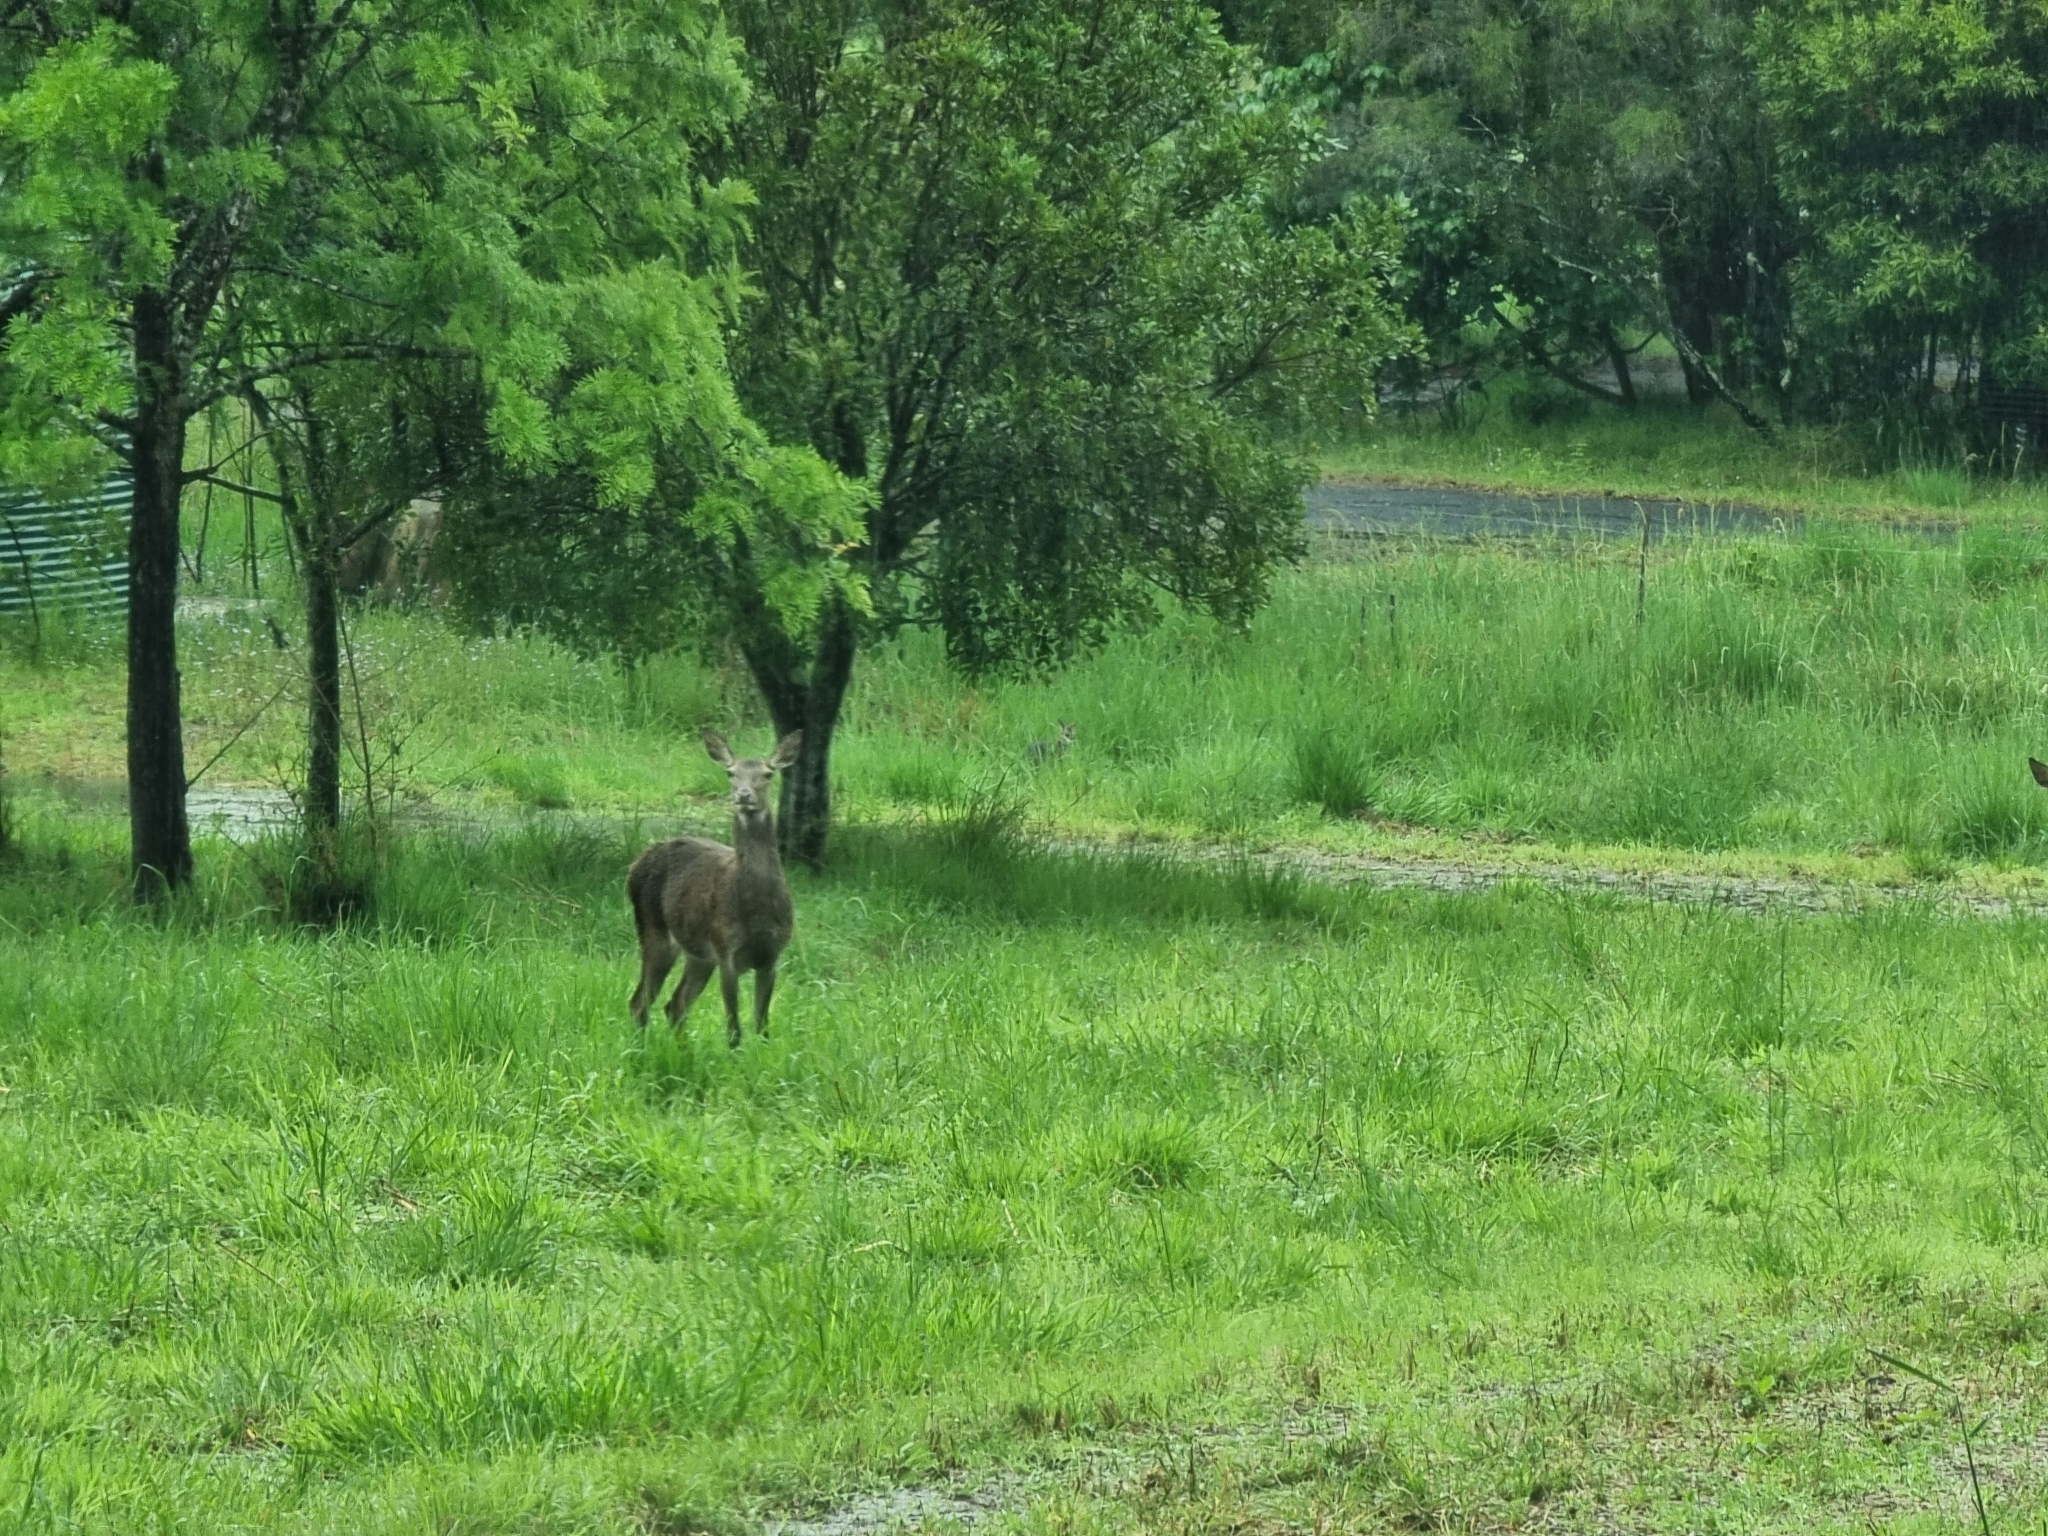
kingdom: Animalia
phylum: Chordata
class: Mammalia
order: Artiodactyla
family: Cervidae
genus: Cervus
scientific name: Cervus elaphus
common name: Red deer
